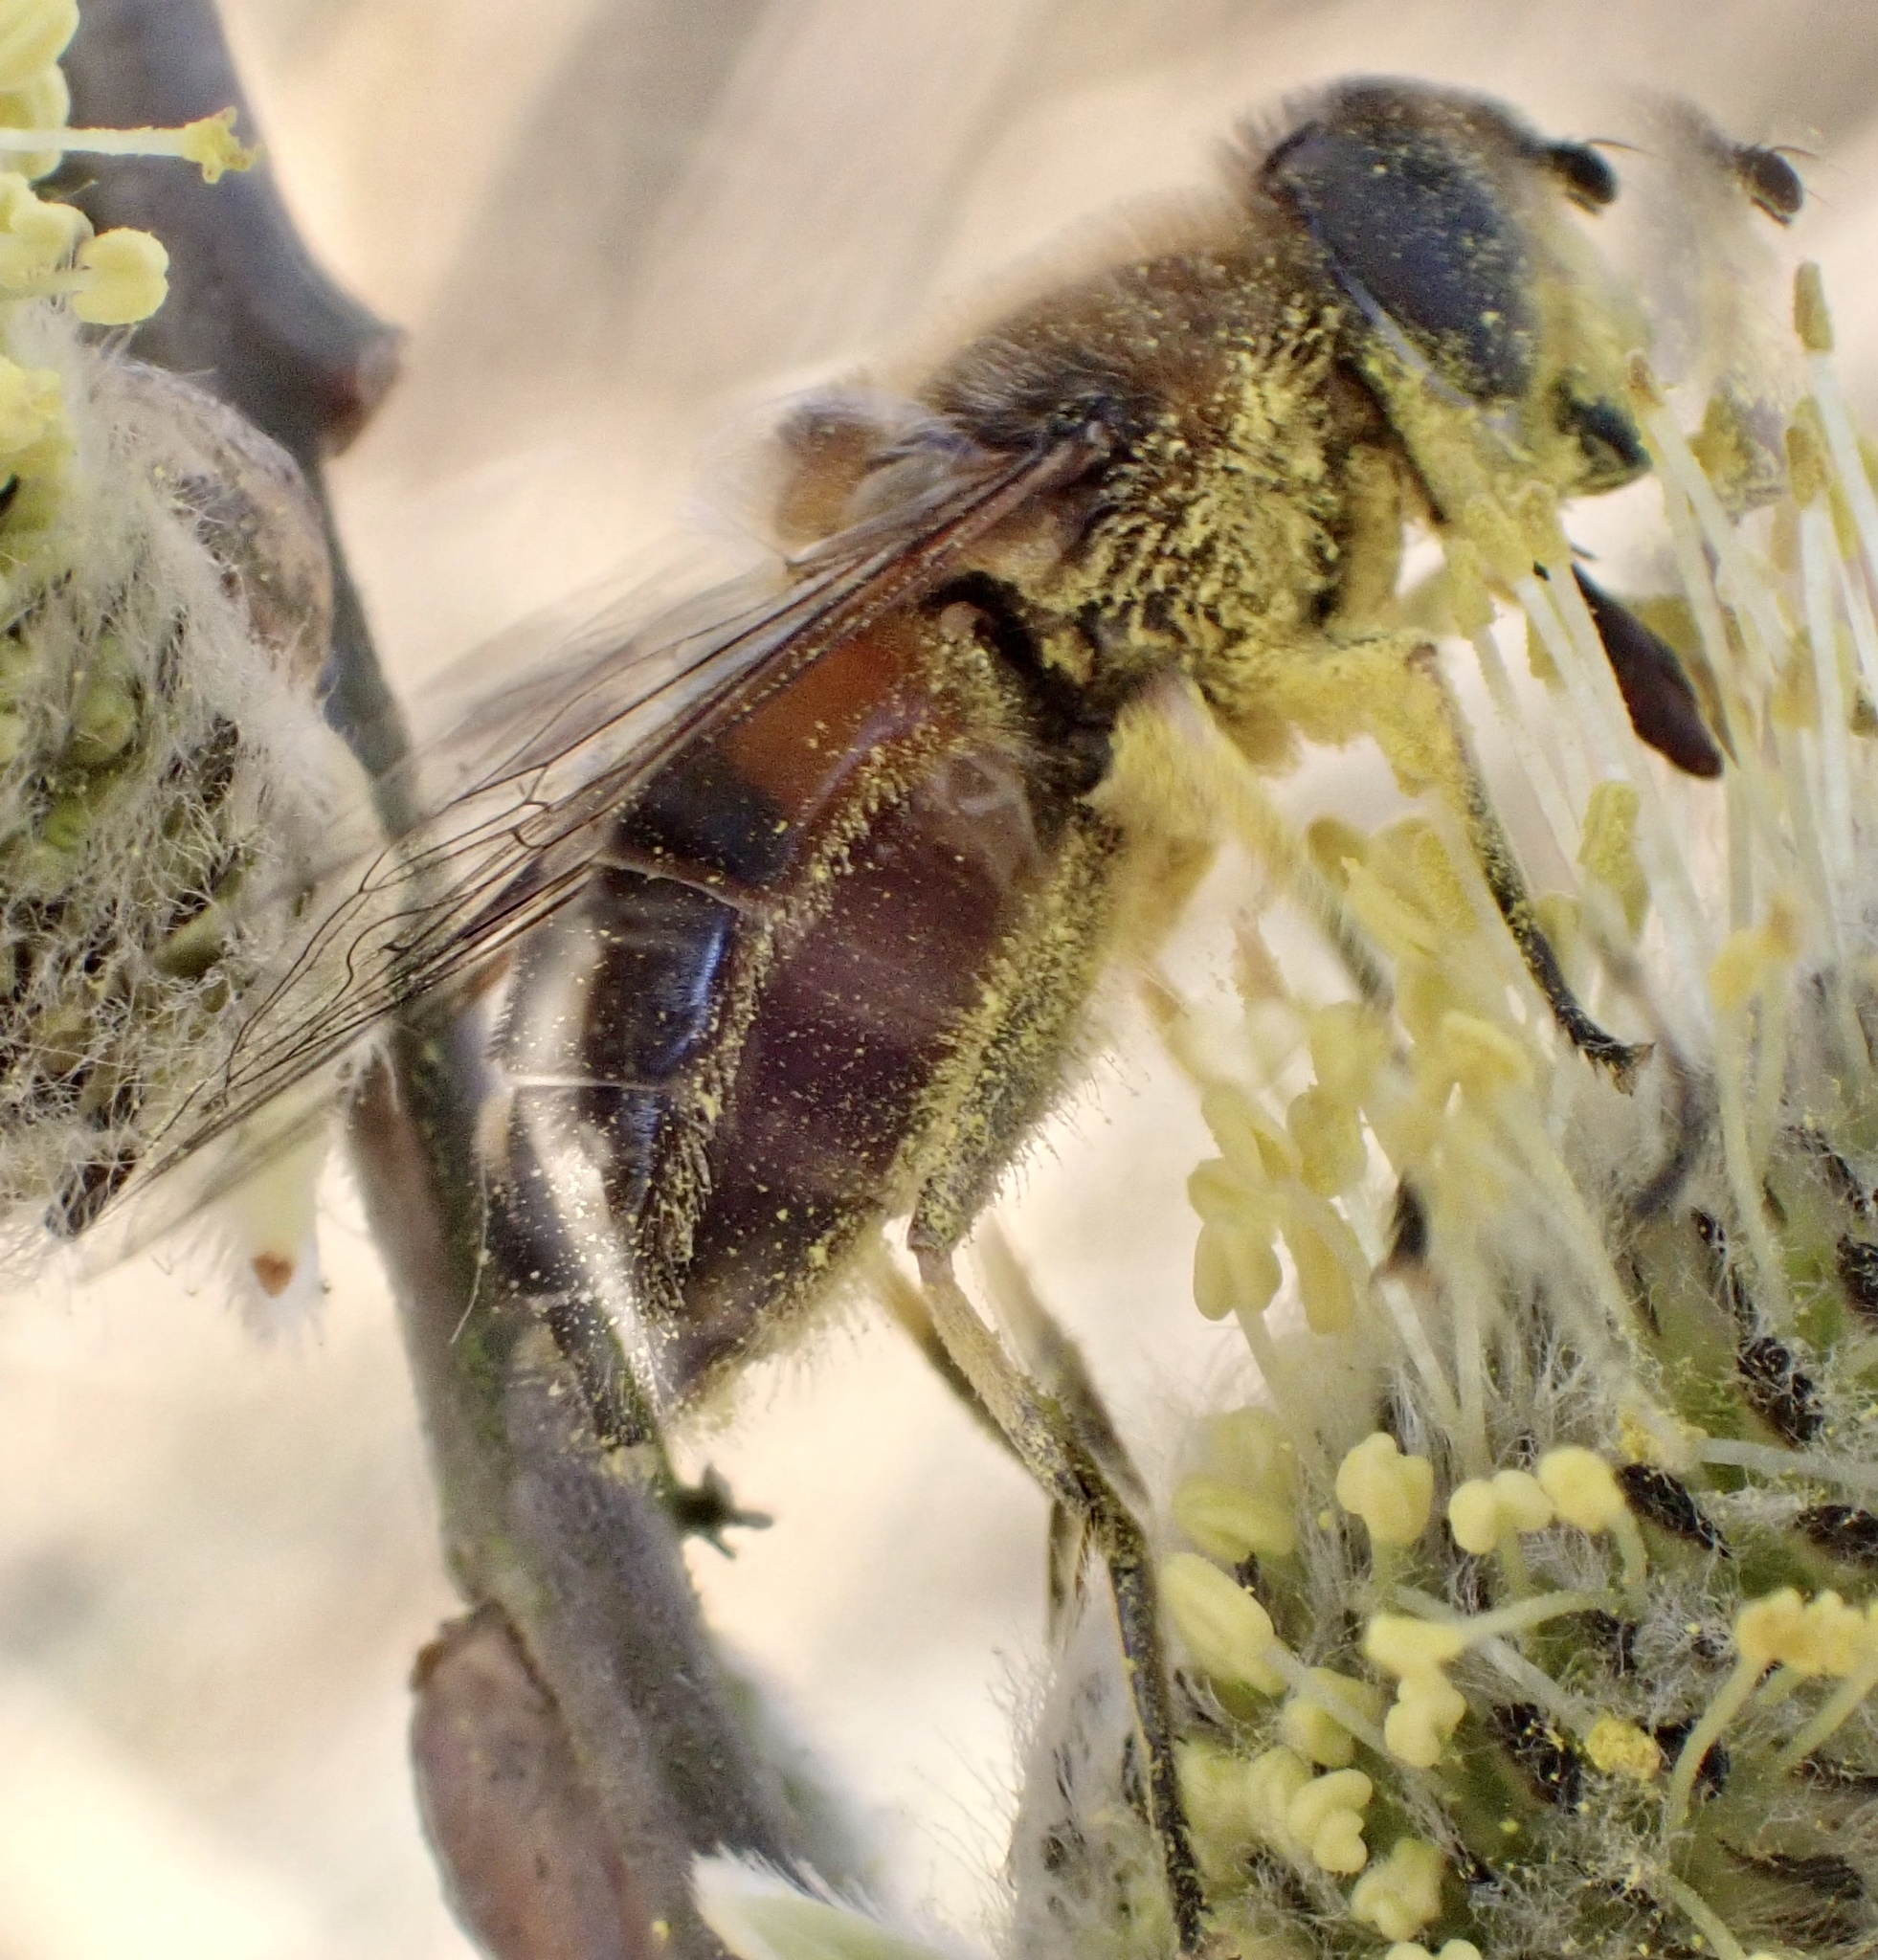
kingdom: Animalia
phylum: Arthropoda
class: Insecta
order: Diptera
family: Syrphidae
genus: Eristalis
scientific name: Eristalis pertinax
